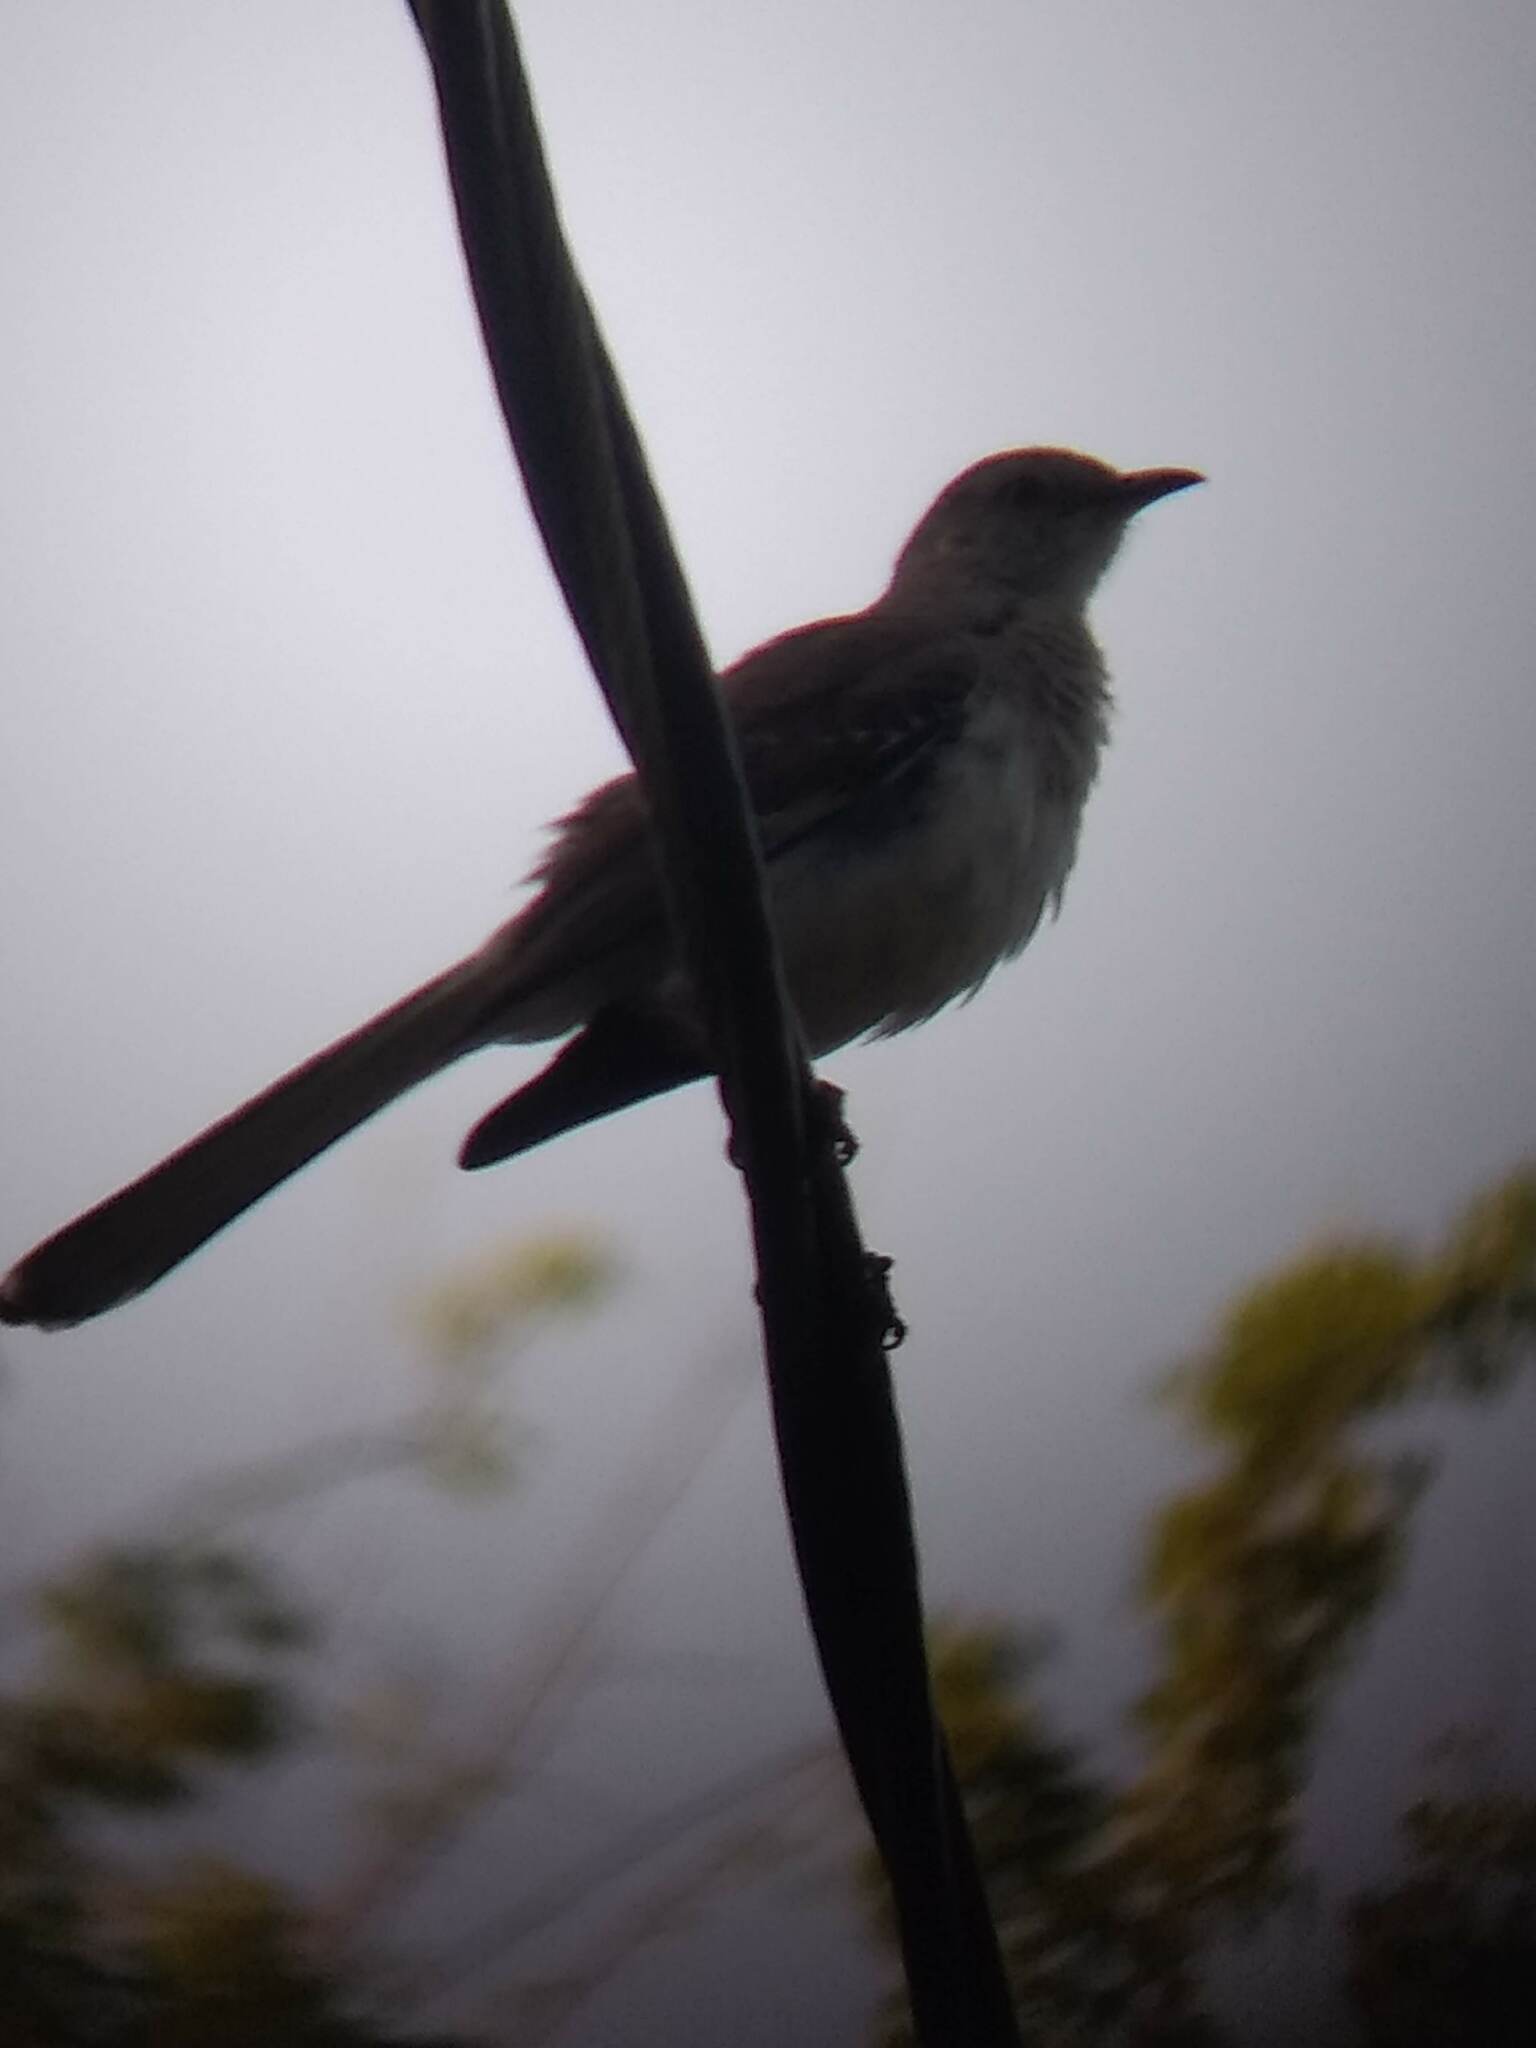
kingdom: Animalia
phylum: Chordata
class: Aves
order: Passeriformes
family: Mimidae
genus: Mimus
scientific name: Mimus polyglottos
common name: Northern mockingbird
